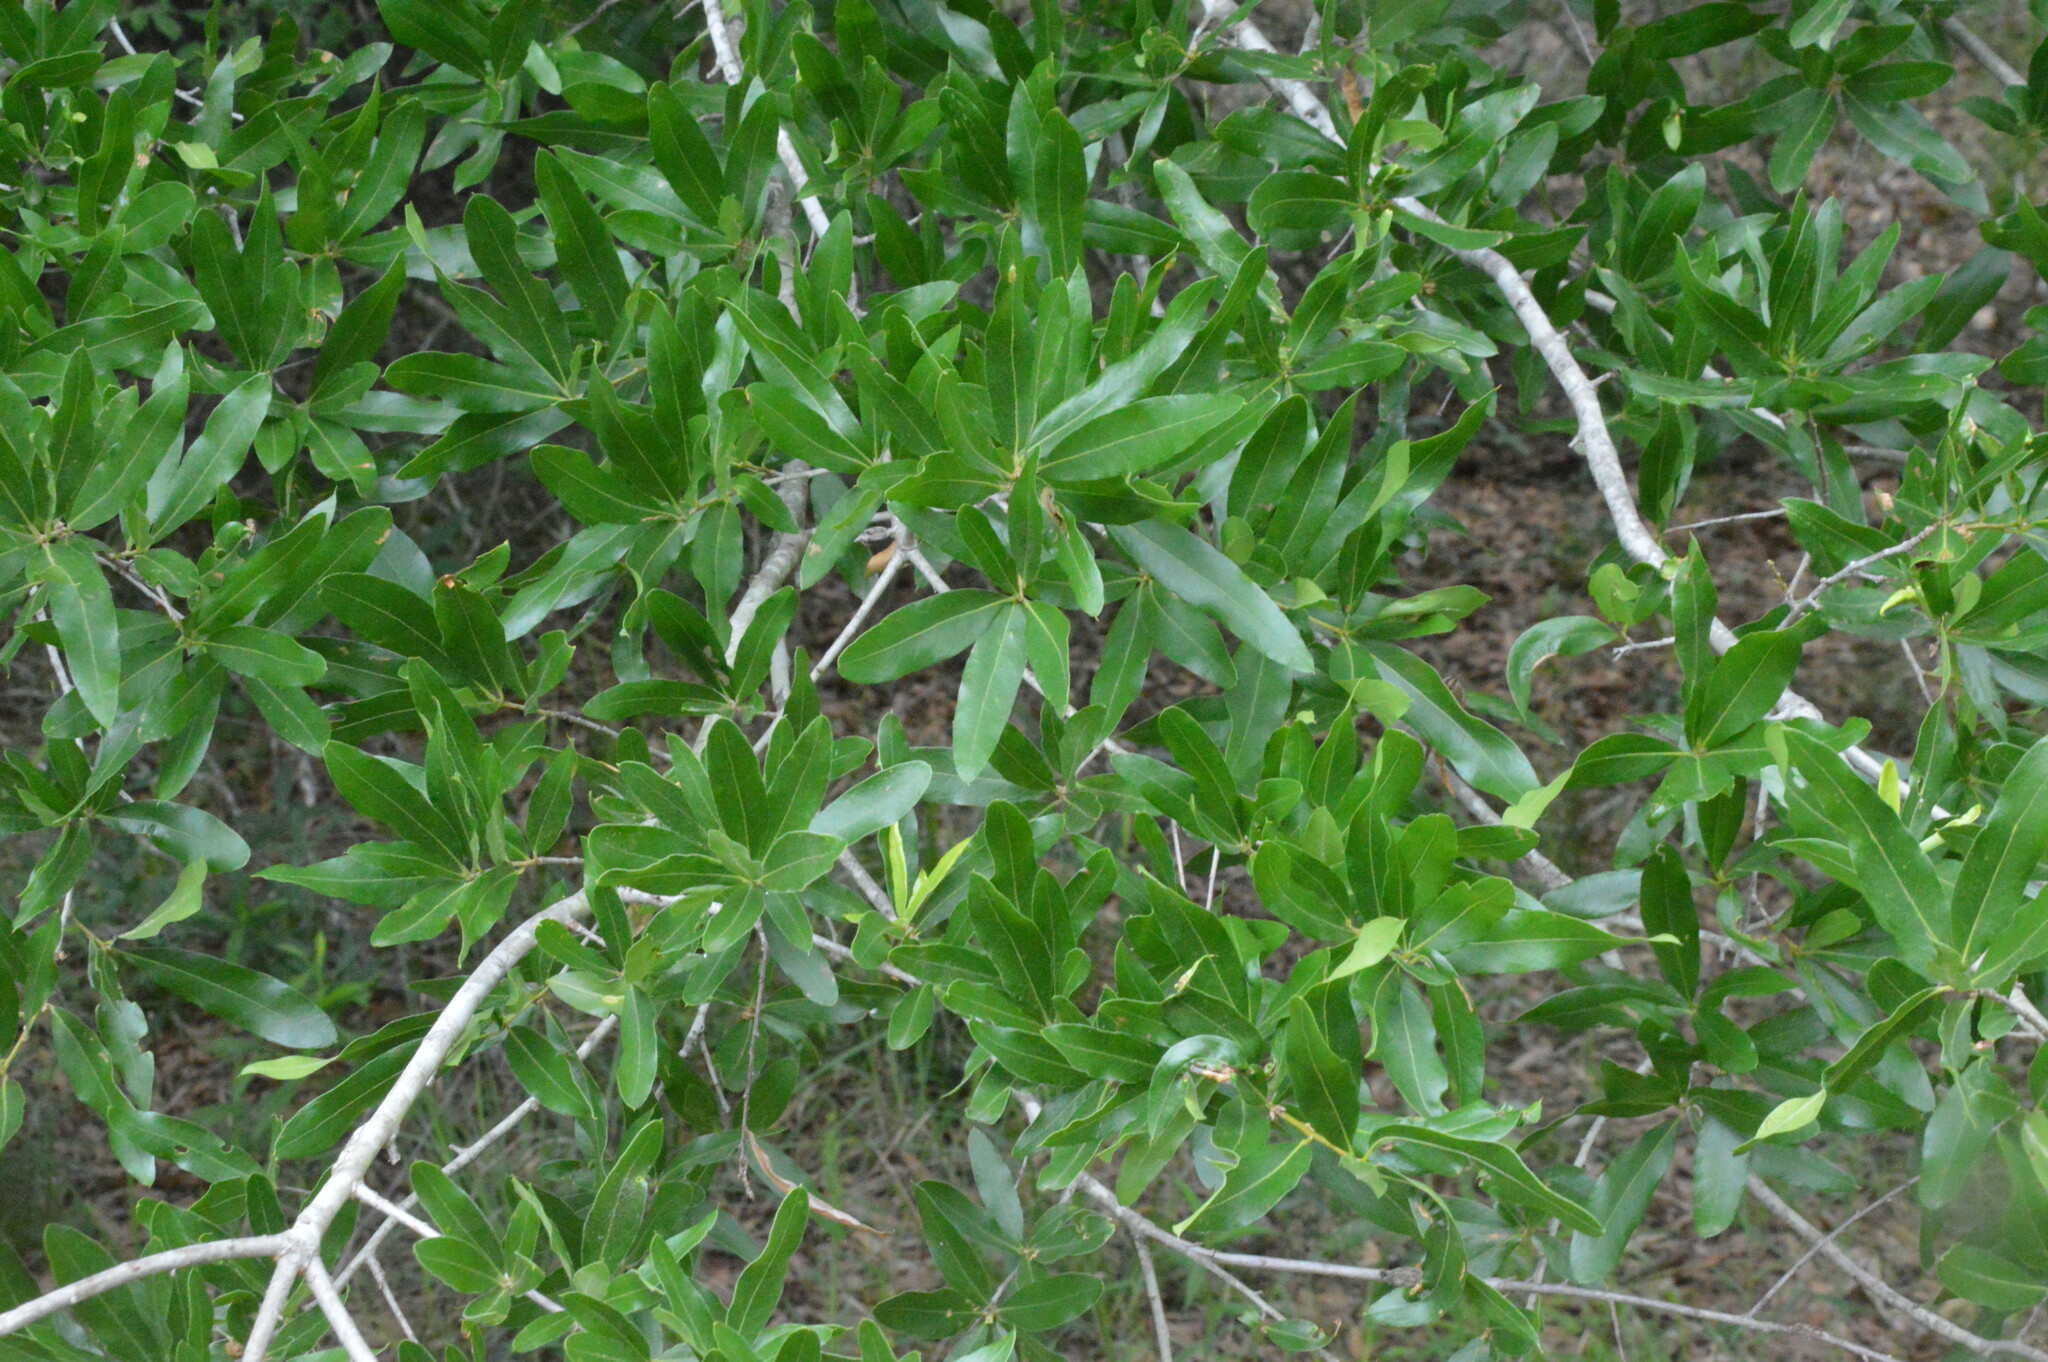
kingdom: Plantae
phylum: Tracheophyta
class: Magnoliopsida
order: Fagales
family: Fagaceae
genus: Quercus
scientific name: Quercus phellos
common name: Willow oak
